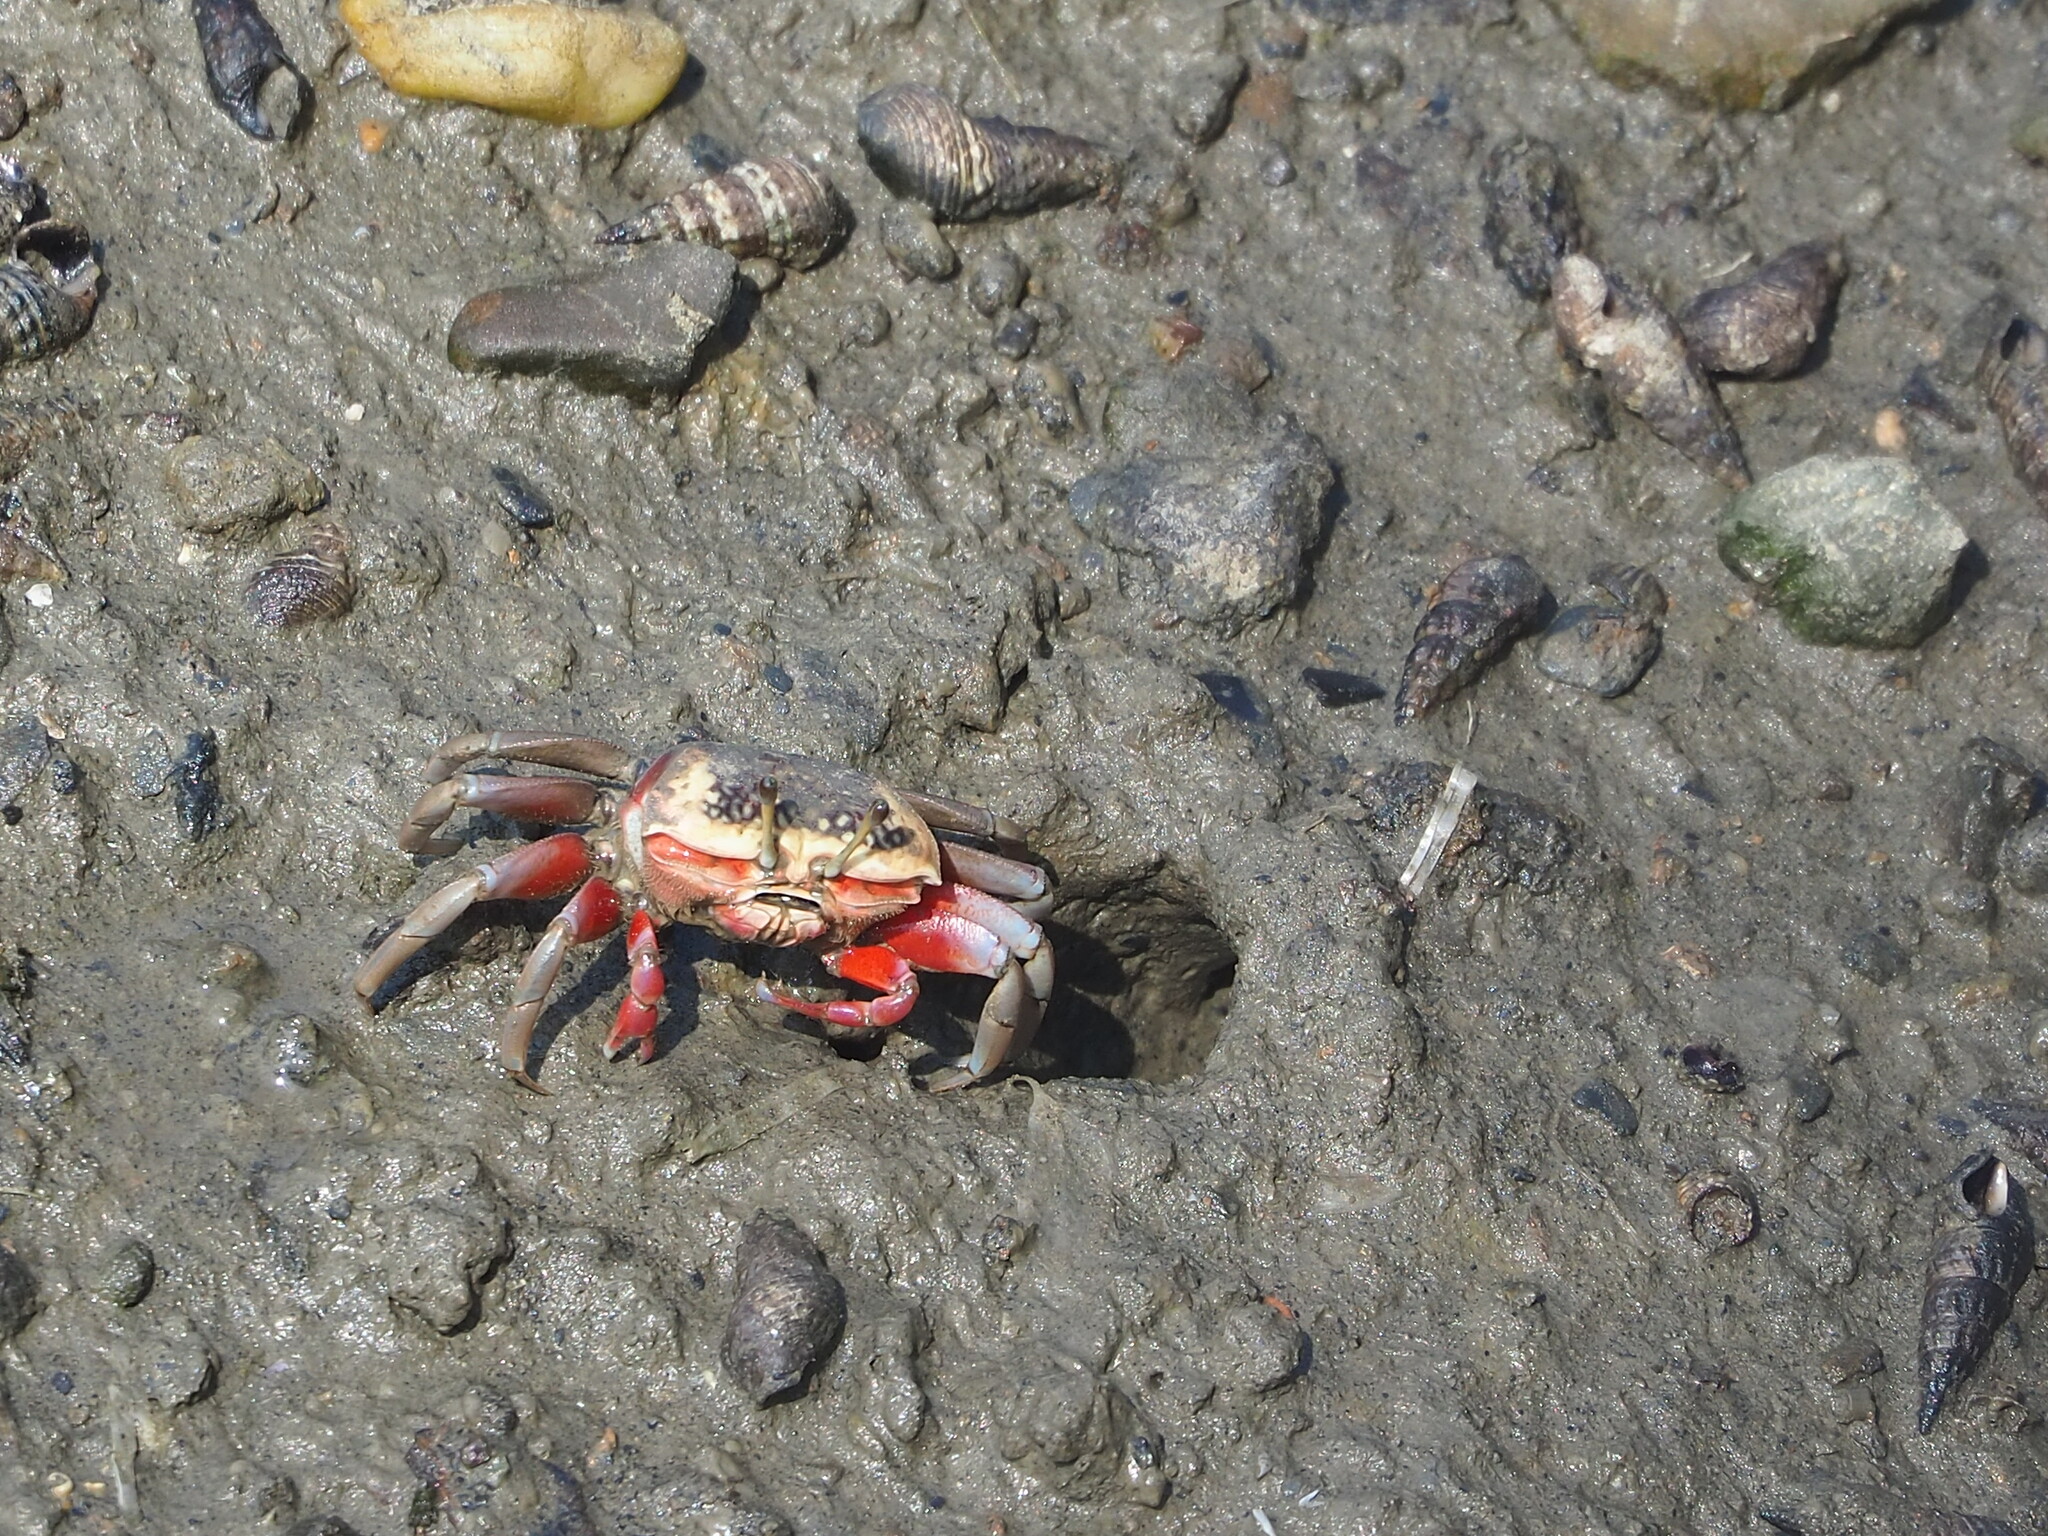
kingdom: Animalia
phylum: Arthropoda
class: Malacostraca
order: Decapoda
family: Ocypodidae
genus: Tubuca
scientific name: Tubuca arcuata
